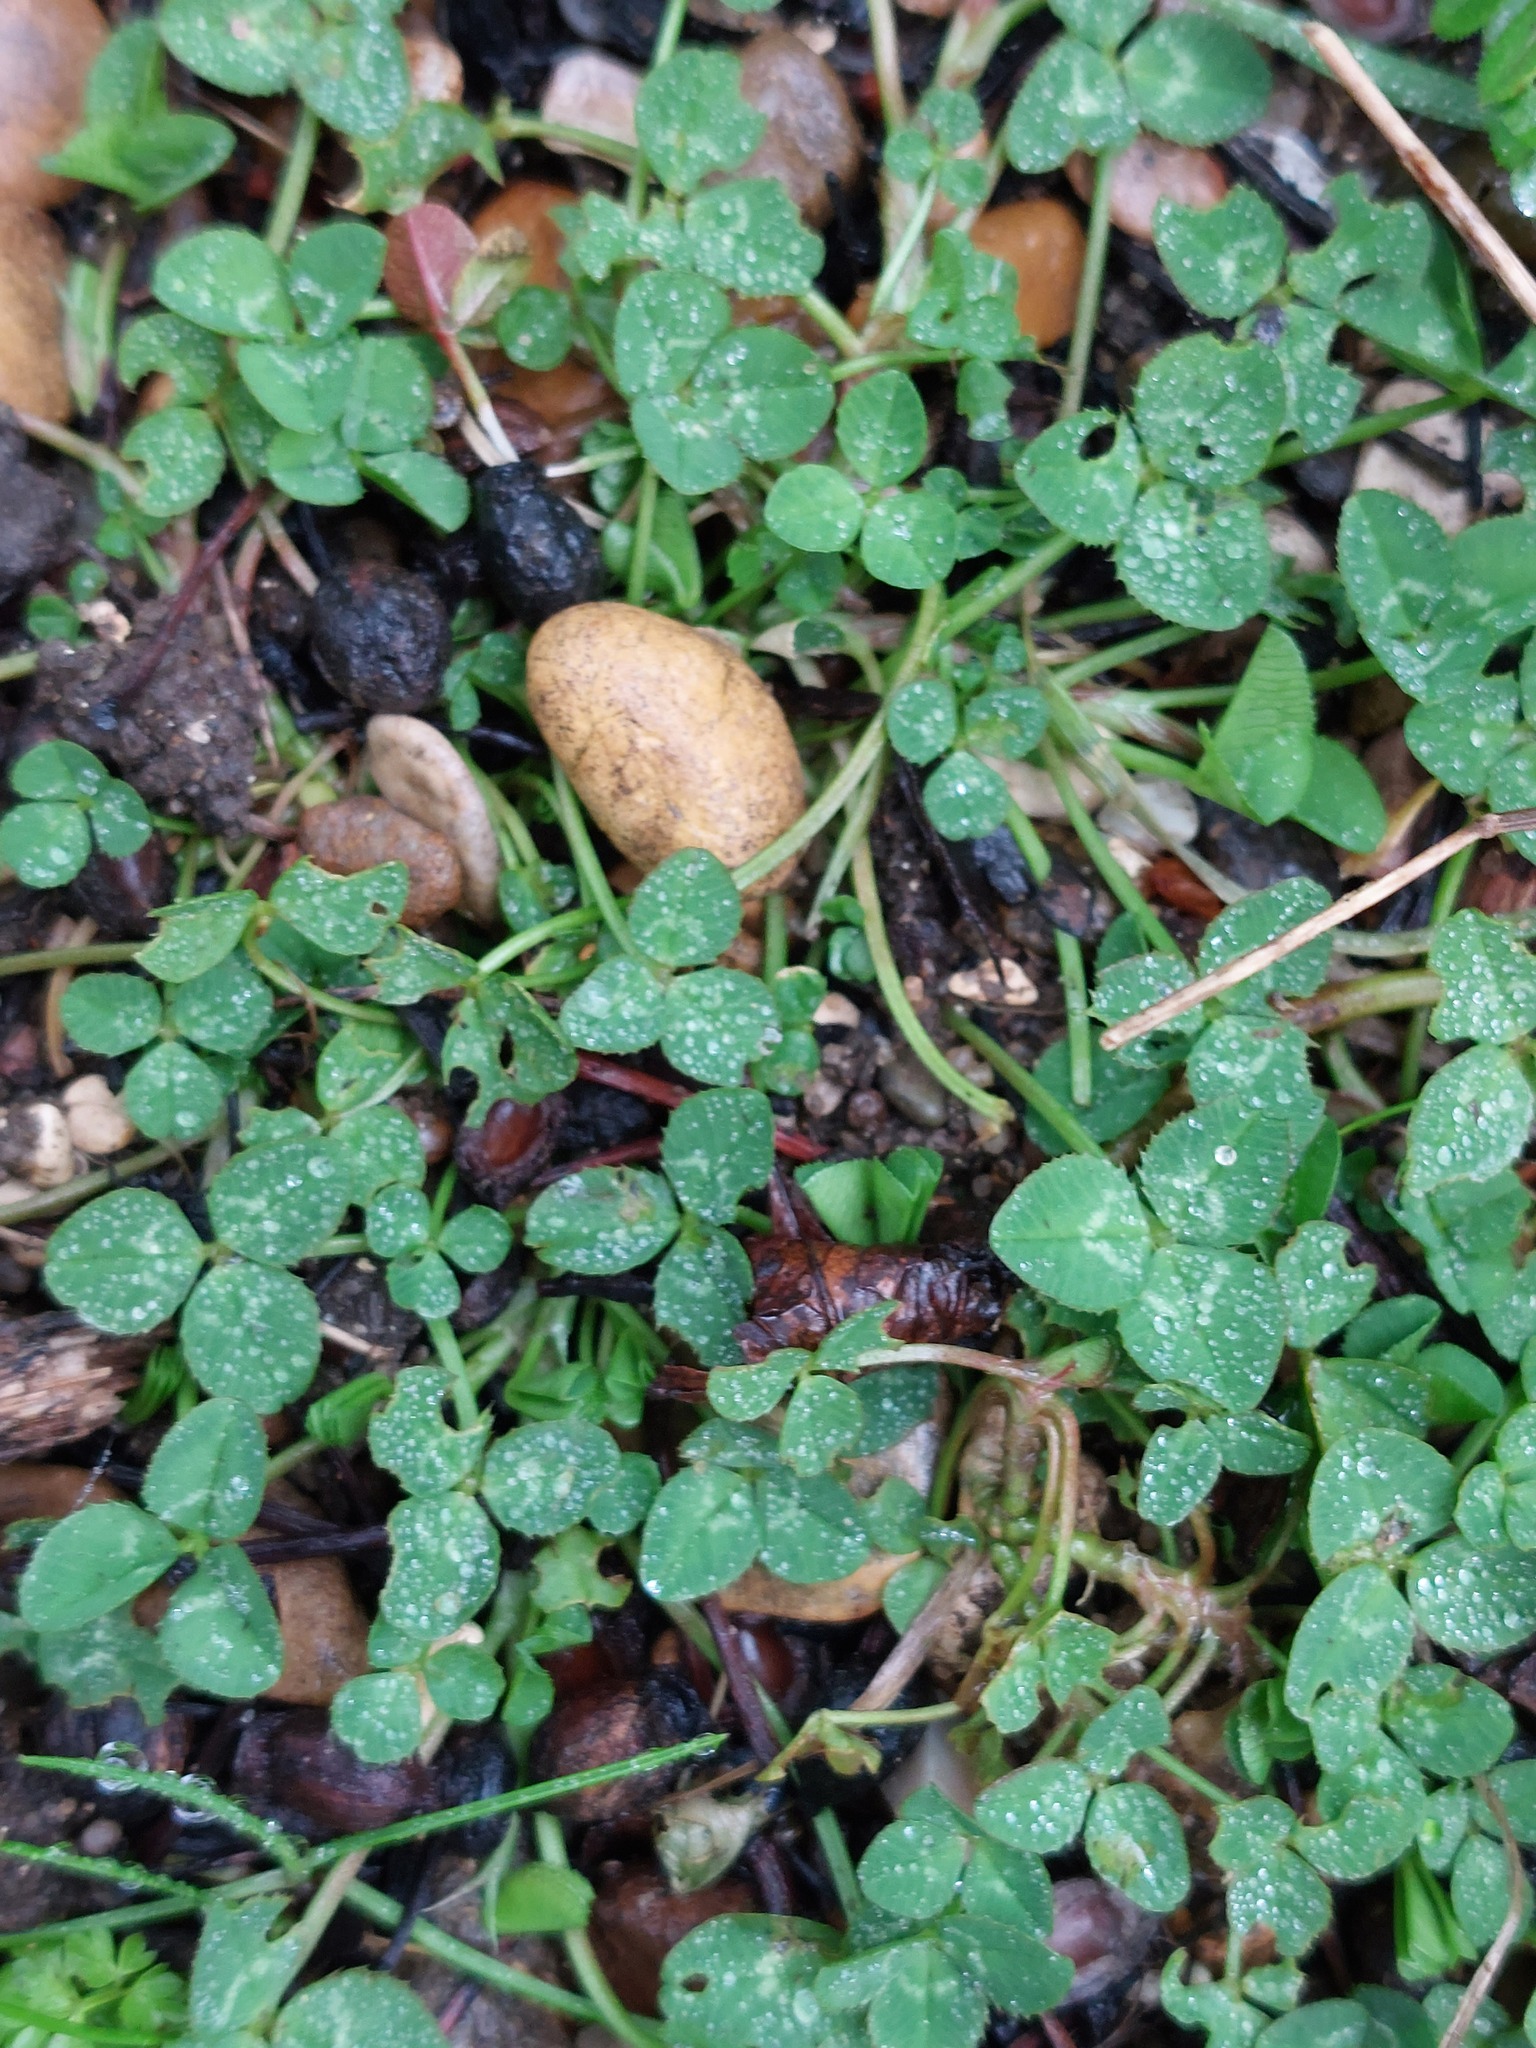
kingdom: Plantae
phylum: Tracheophyta
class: Magnoliopsida
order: Fabales
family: Fabaceae
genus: Trifolium
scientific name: Trifolium repens
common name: White clover
